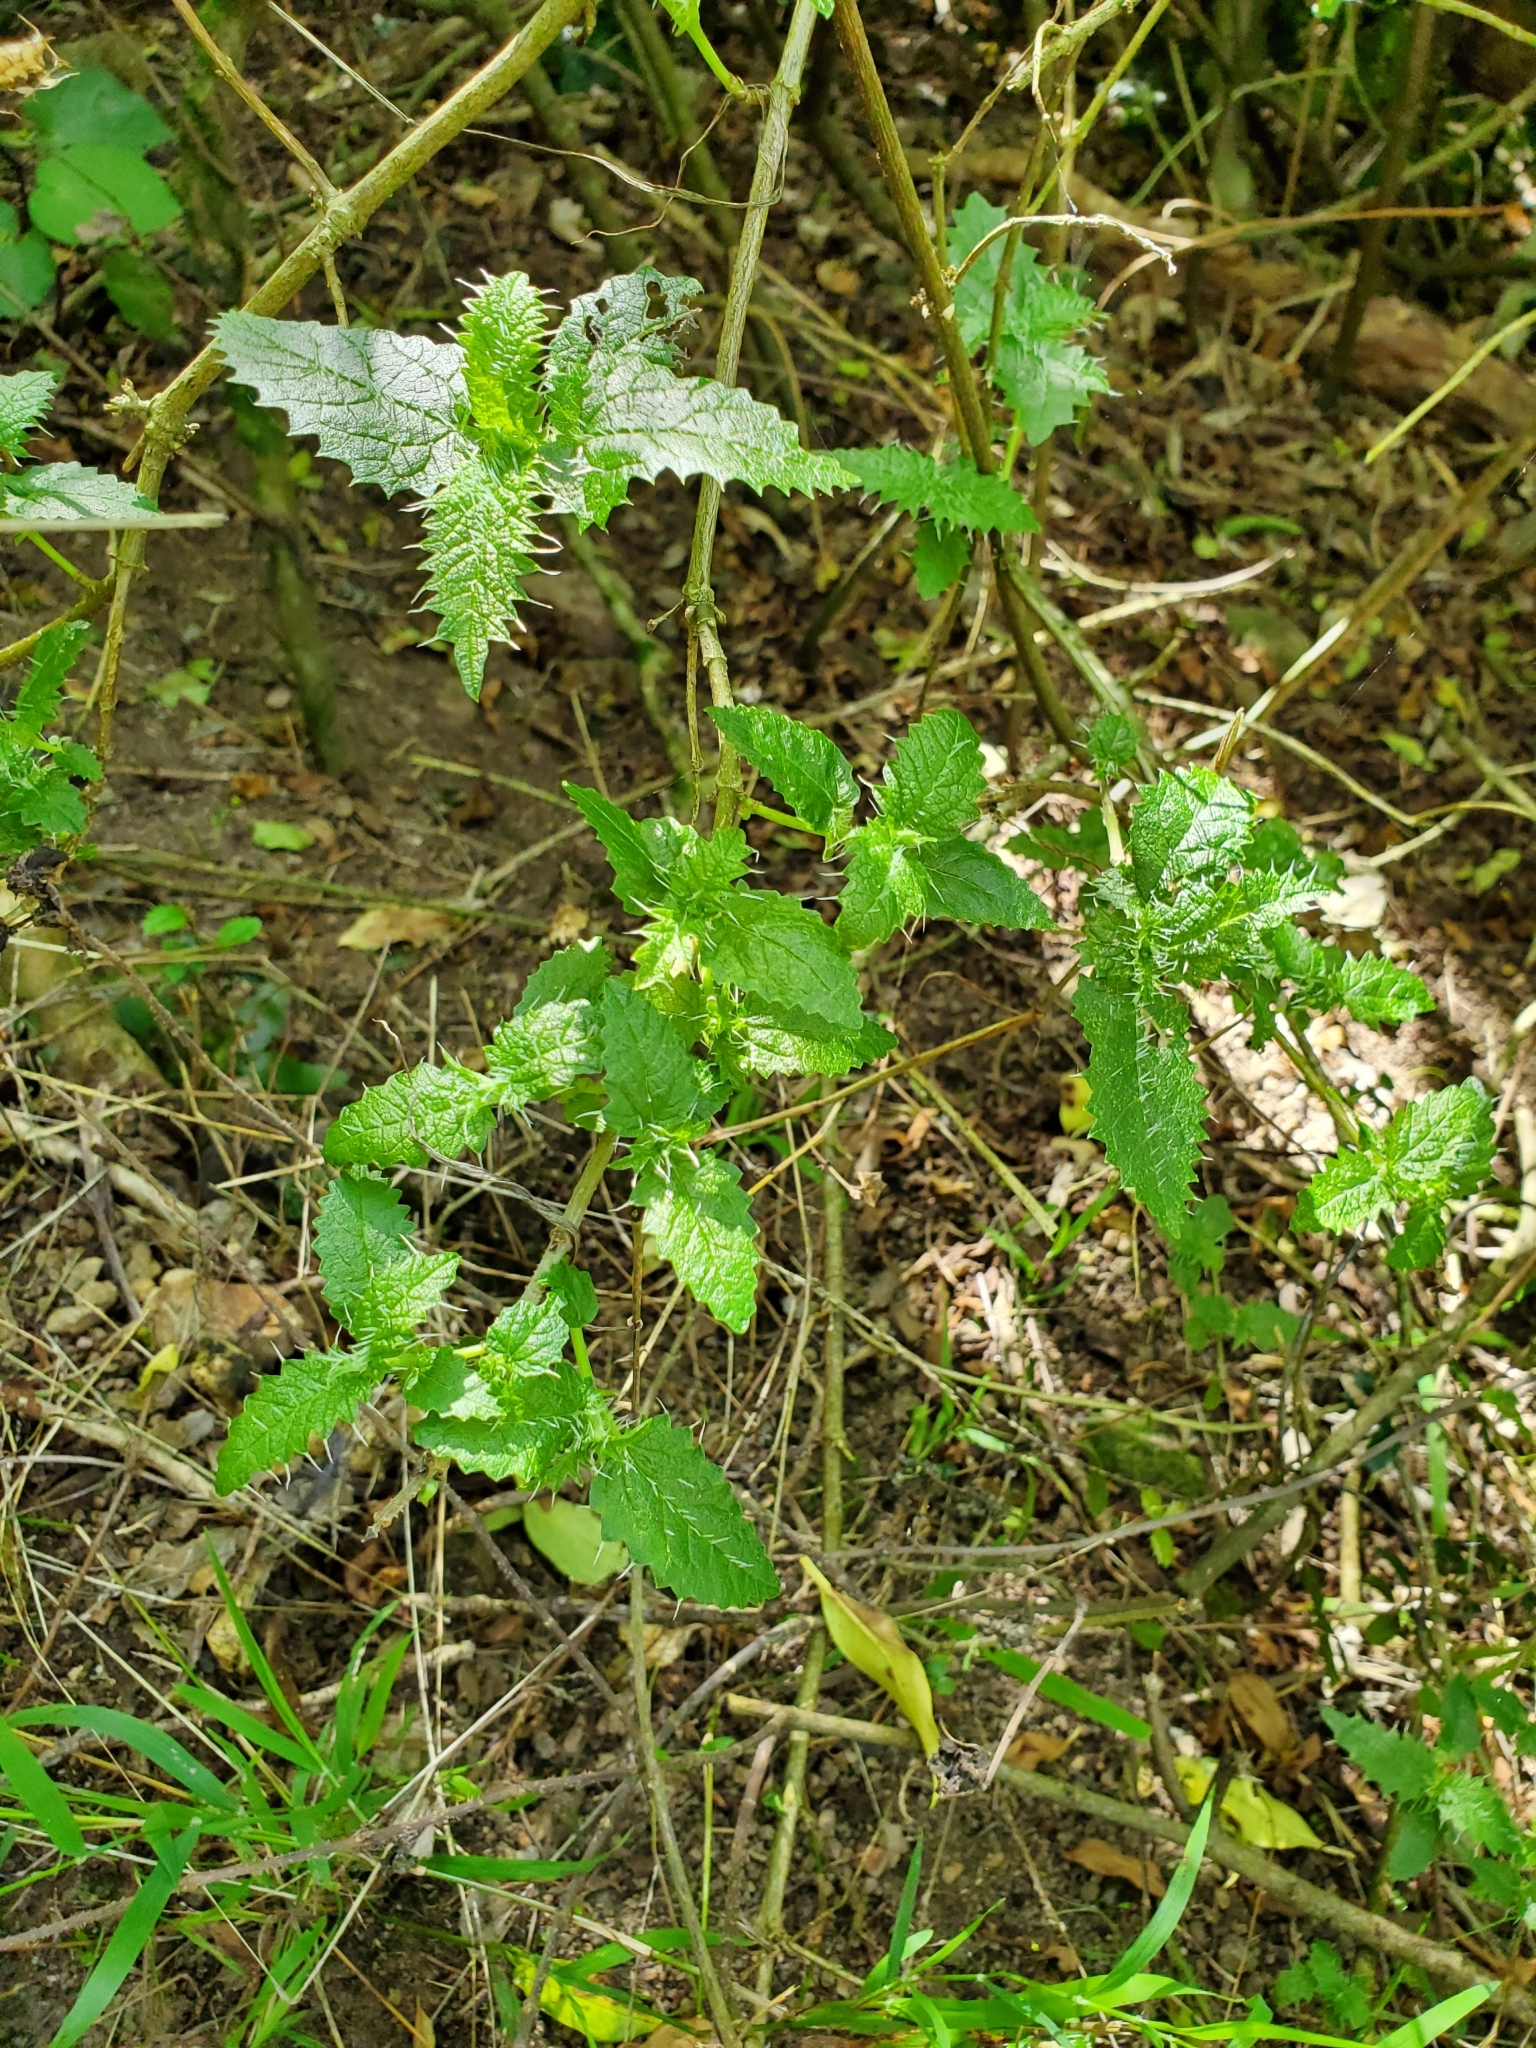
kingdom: Plantae
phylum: Tracheophyta
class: Magnoliopsida
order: Rosales
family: Urticaceae
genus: Urtica
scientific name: Urtica ferox
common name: Tree nettle
